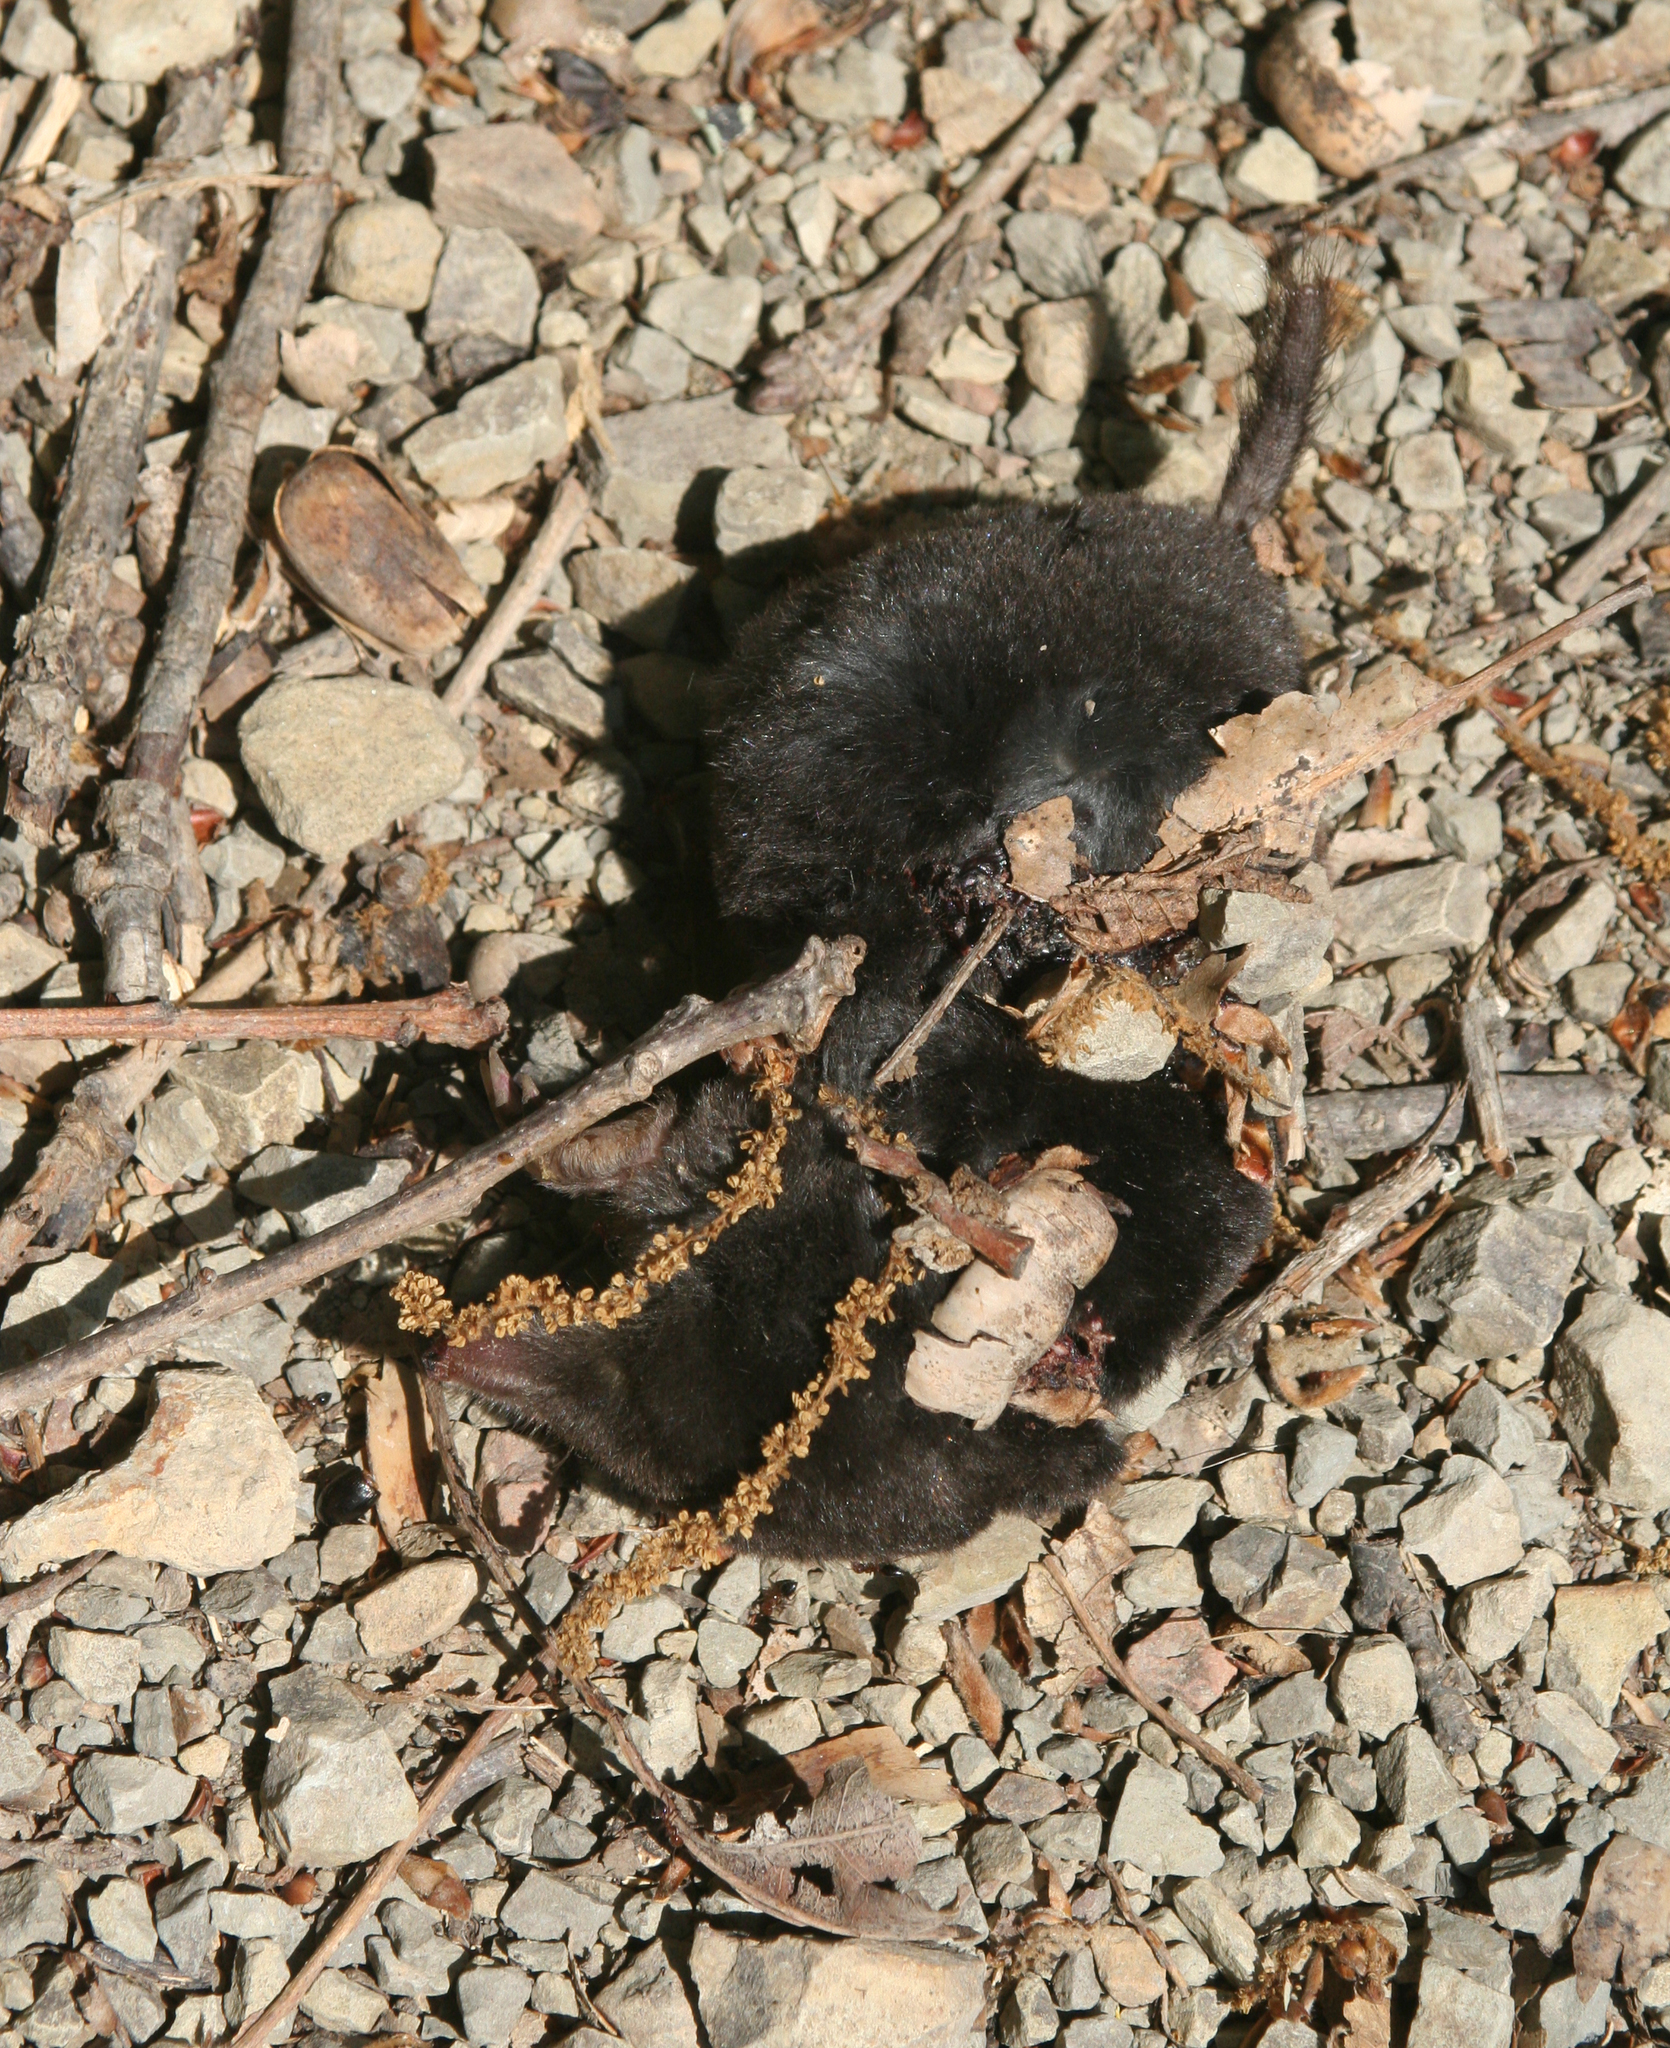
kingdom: Animalia
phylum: Chordata
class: Mammalia
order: Soricomorpha
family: Talpidae
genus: Talpa
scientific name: Talpa caucasica
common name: Caucasian mole
